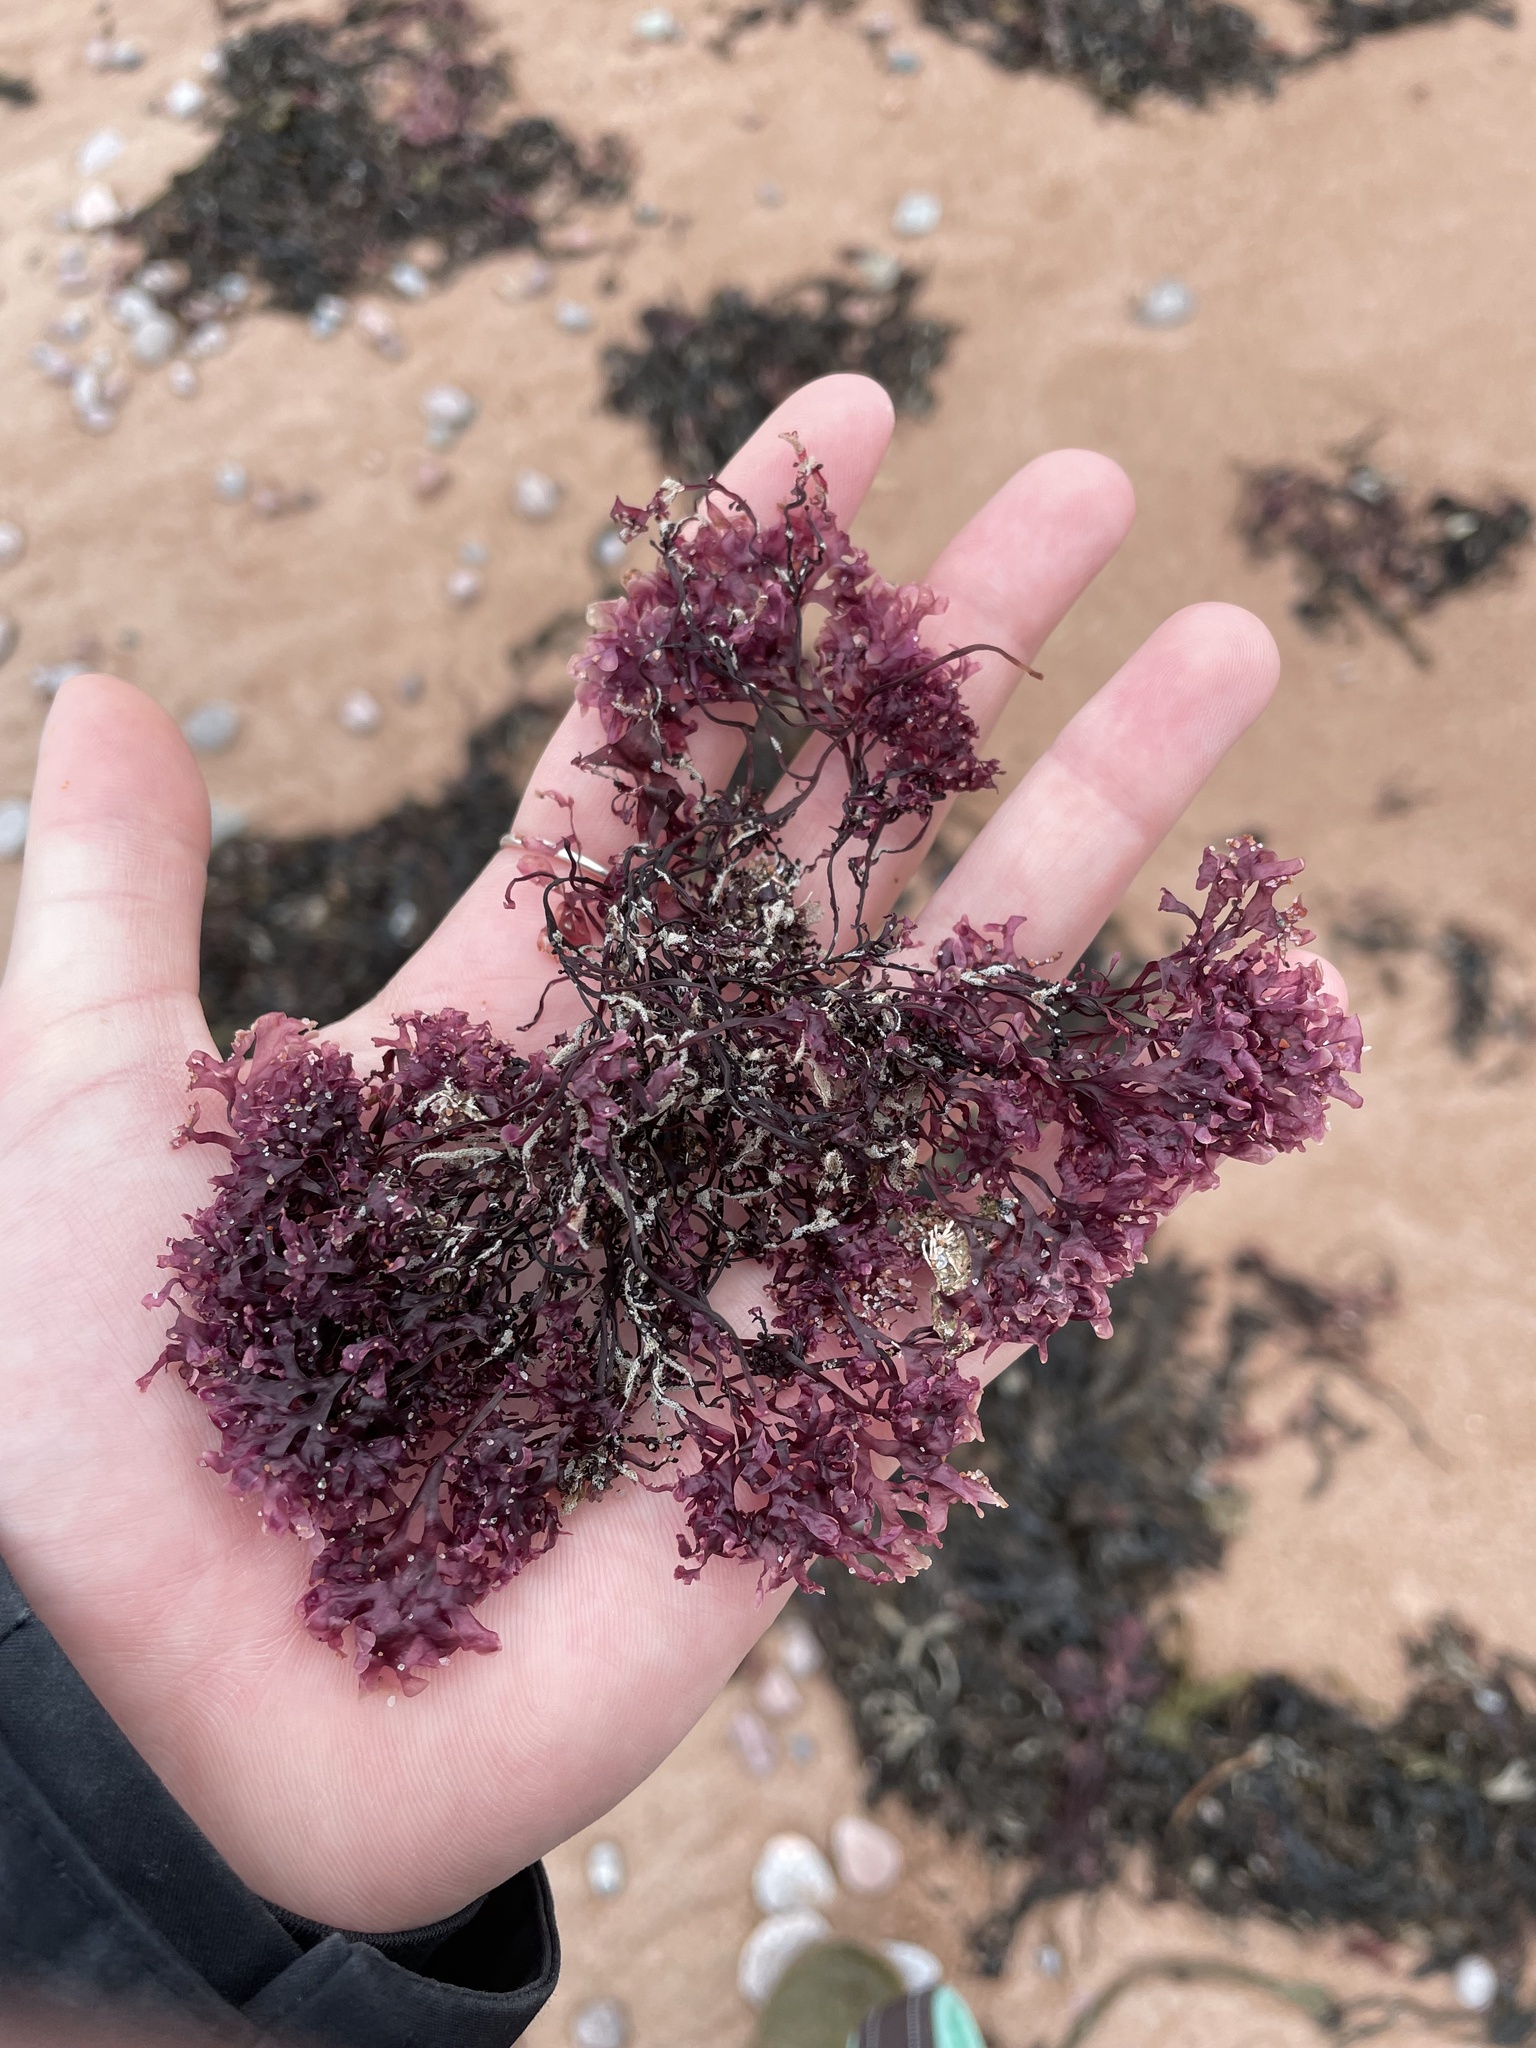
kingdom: Plantae
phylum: Rhodophyta
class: Florideophyceae
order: Gigartinales
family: Gigartinaceae
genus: Chondrus
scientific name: Chondrus crispus
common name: Carrageen
